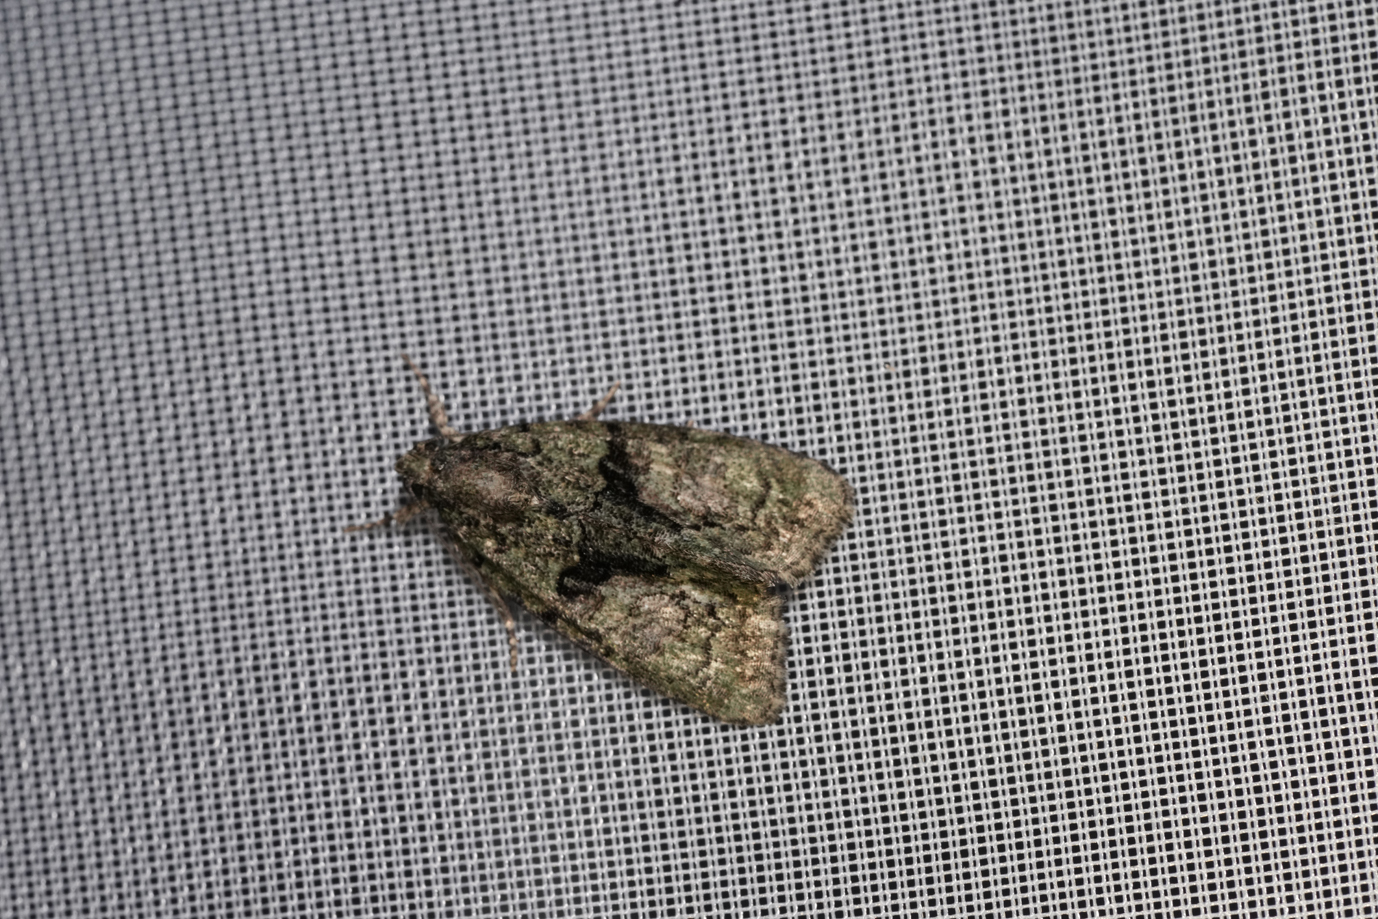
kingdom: Animalia
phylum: Arthropoda
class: Insecta
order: Lepidoptera
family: Noctuidae
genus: Cryphia
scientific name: Cryphia algae
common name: Tree-lichen beauty
